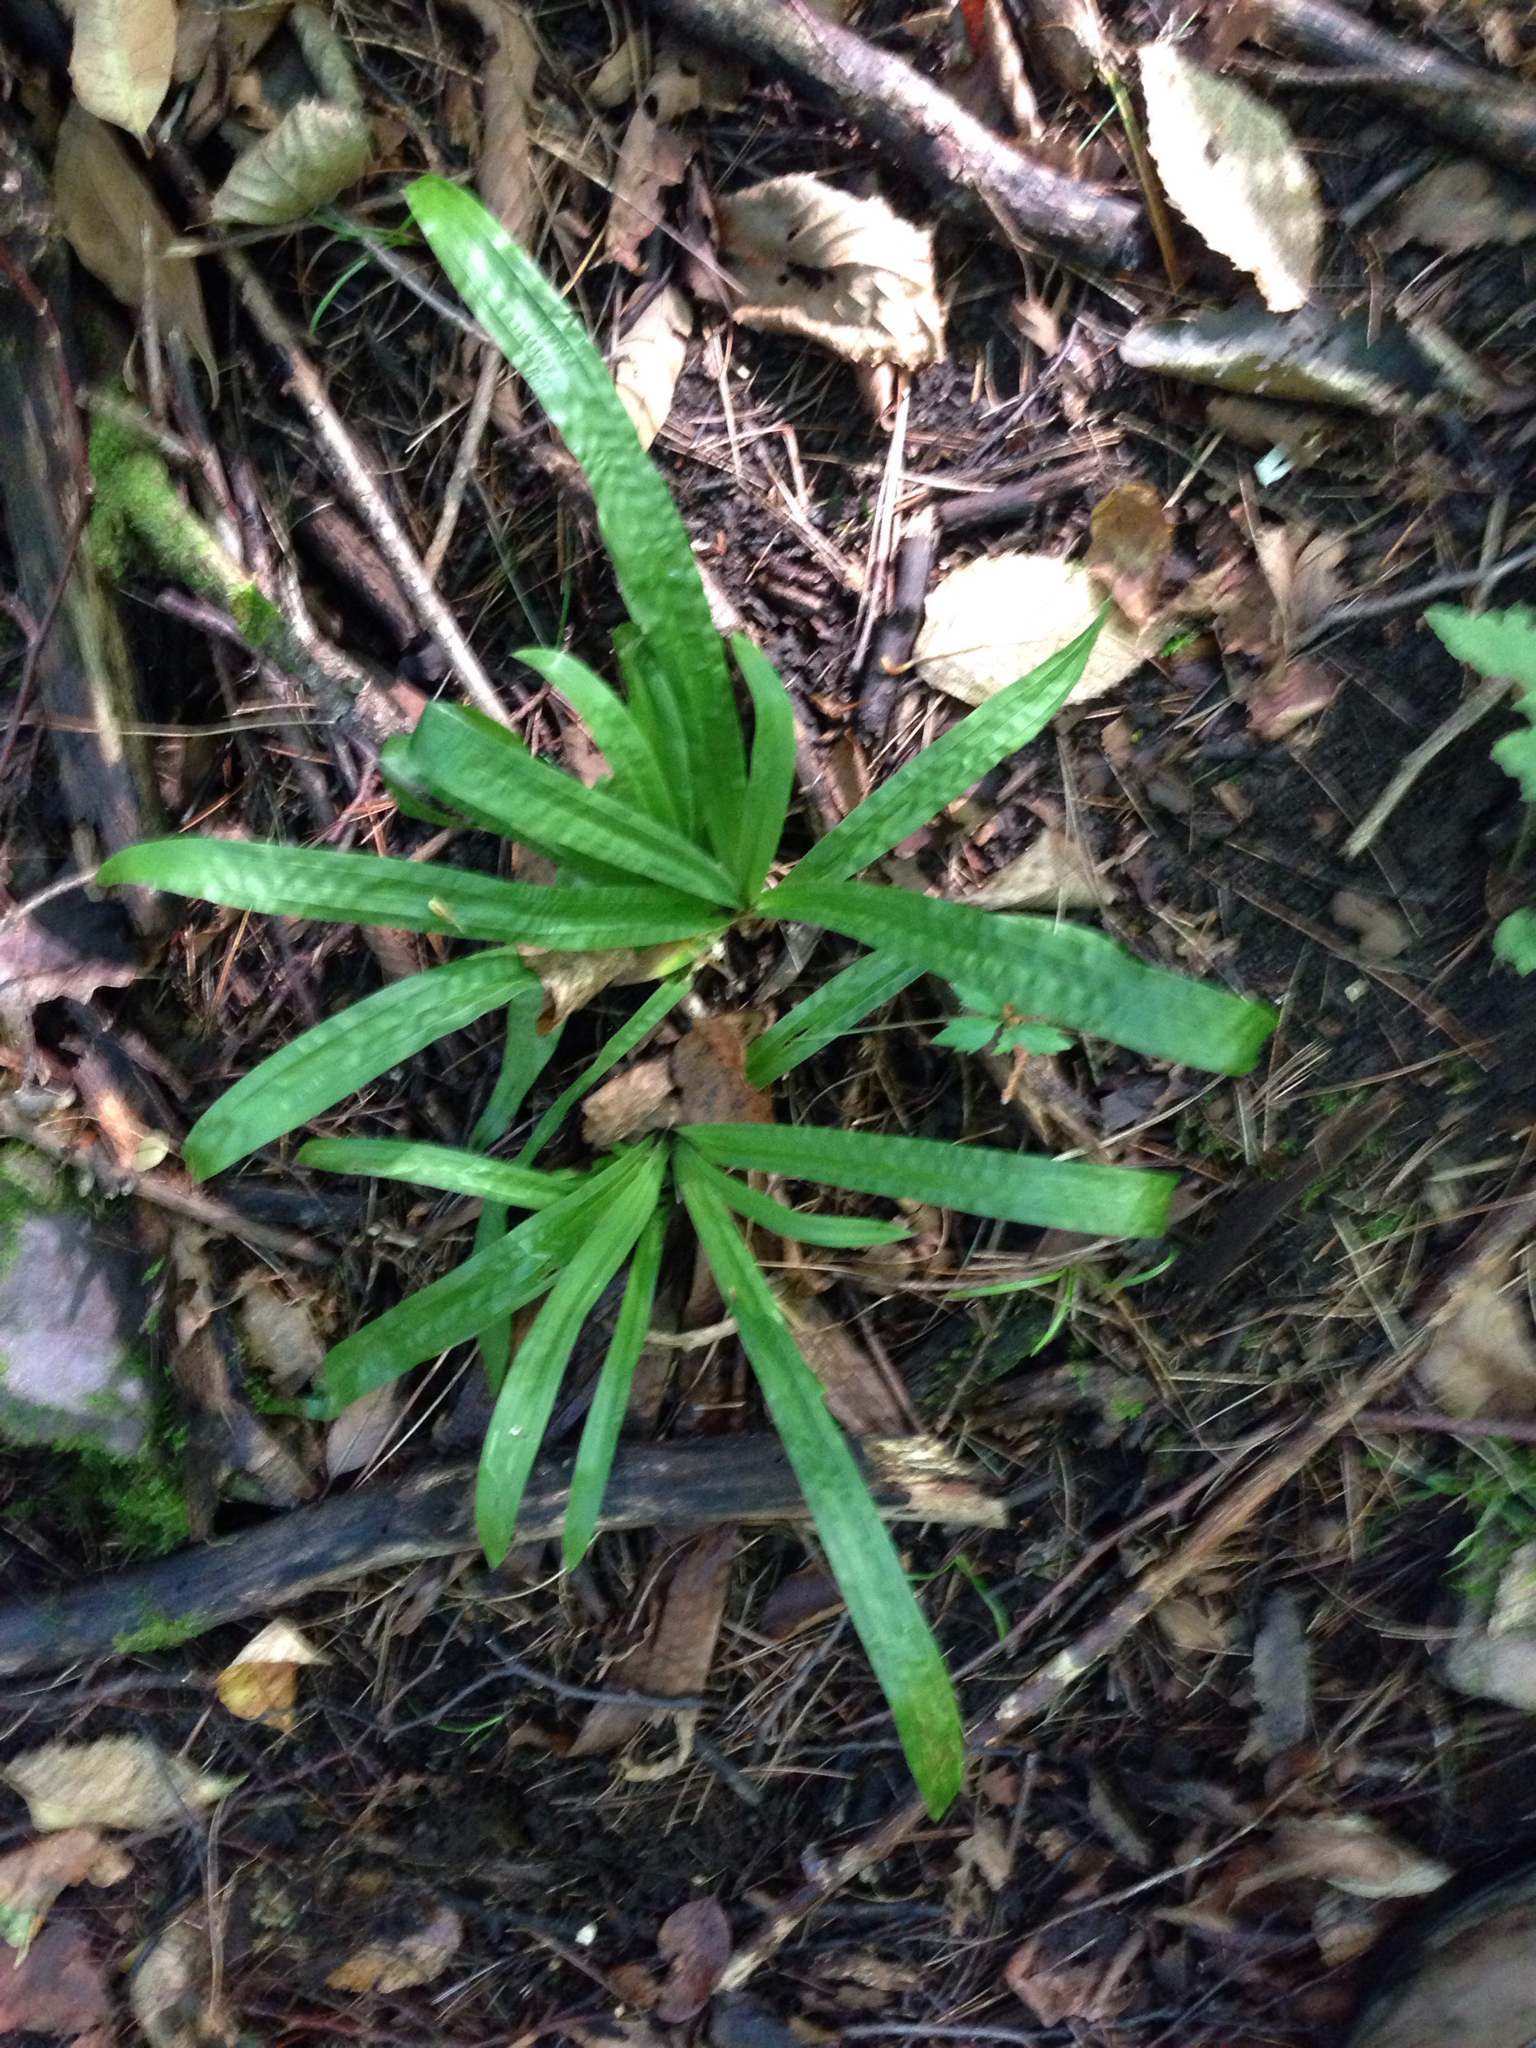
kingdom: Plantae
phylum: Tracheophyta
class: Liliopsida
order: Poales
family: Cyperaceae
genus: Carex
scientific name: Carex plantaginea
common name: Plantain-leaved sedge
